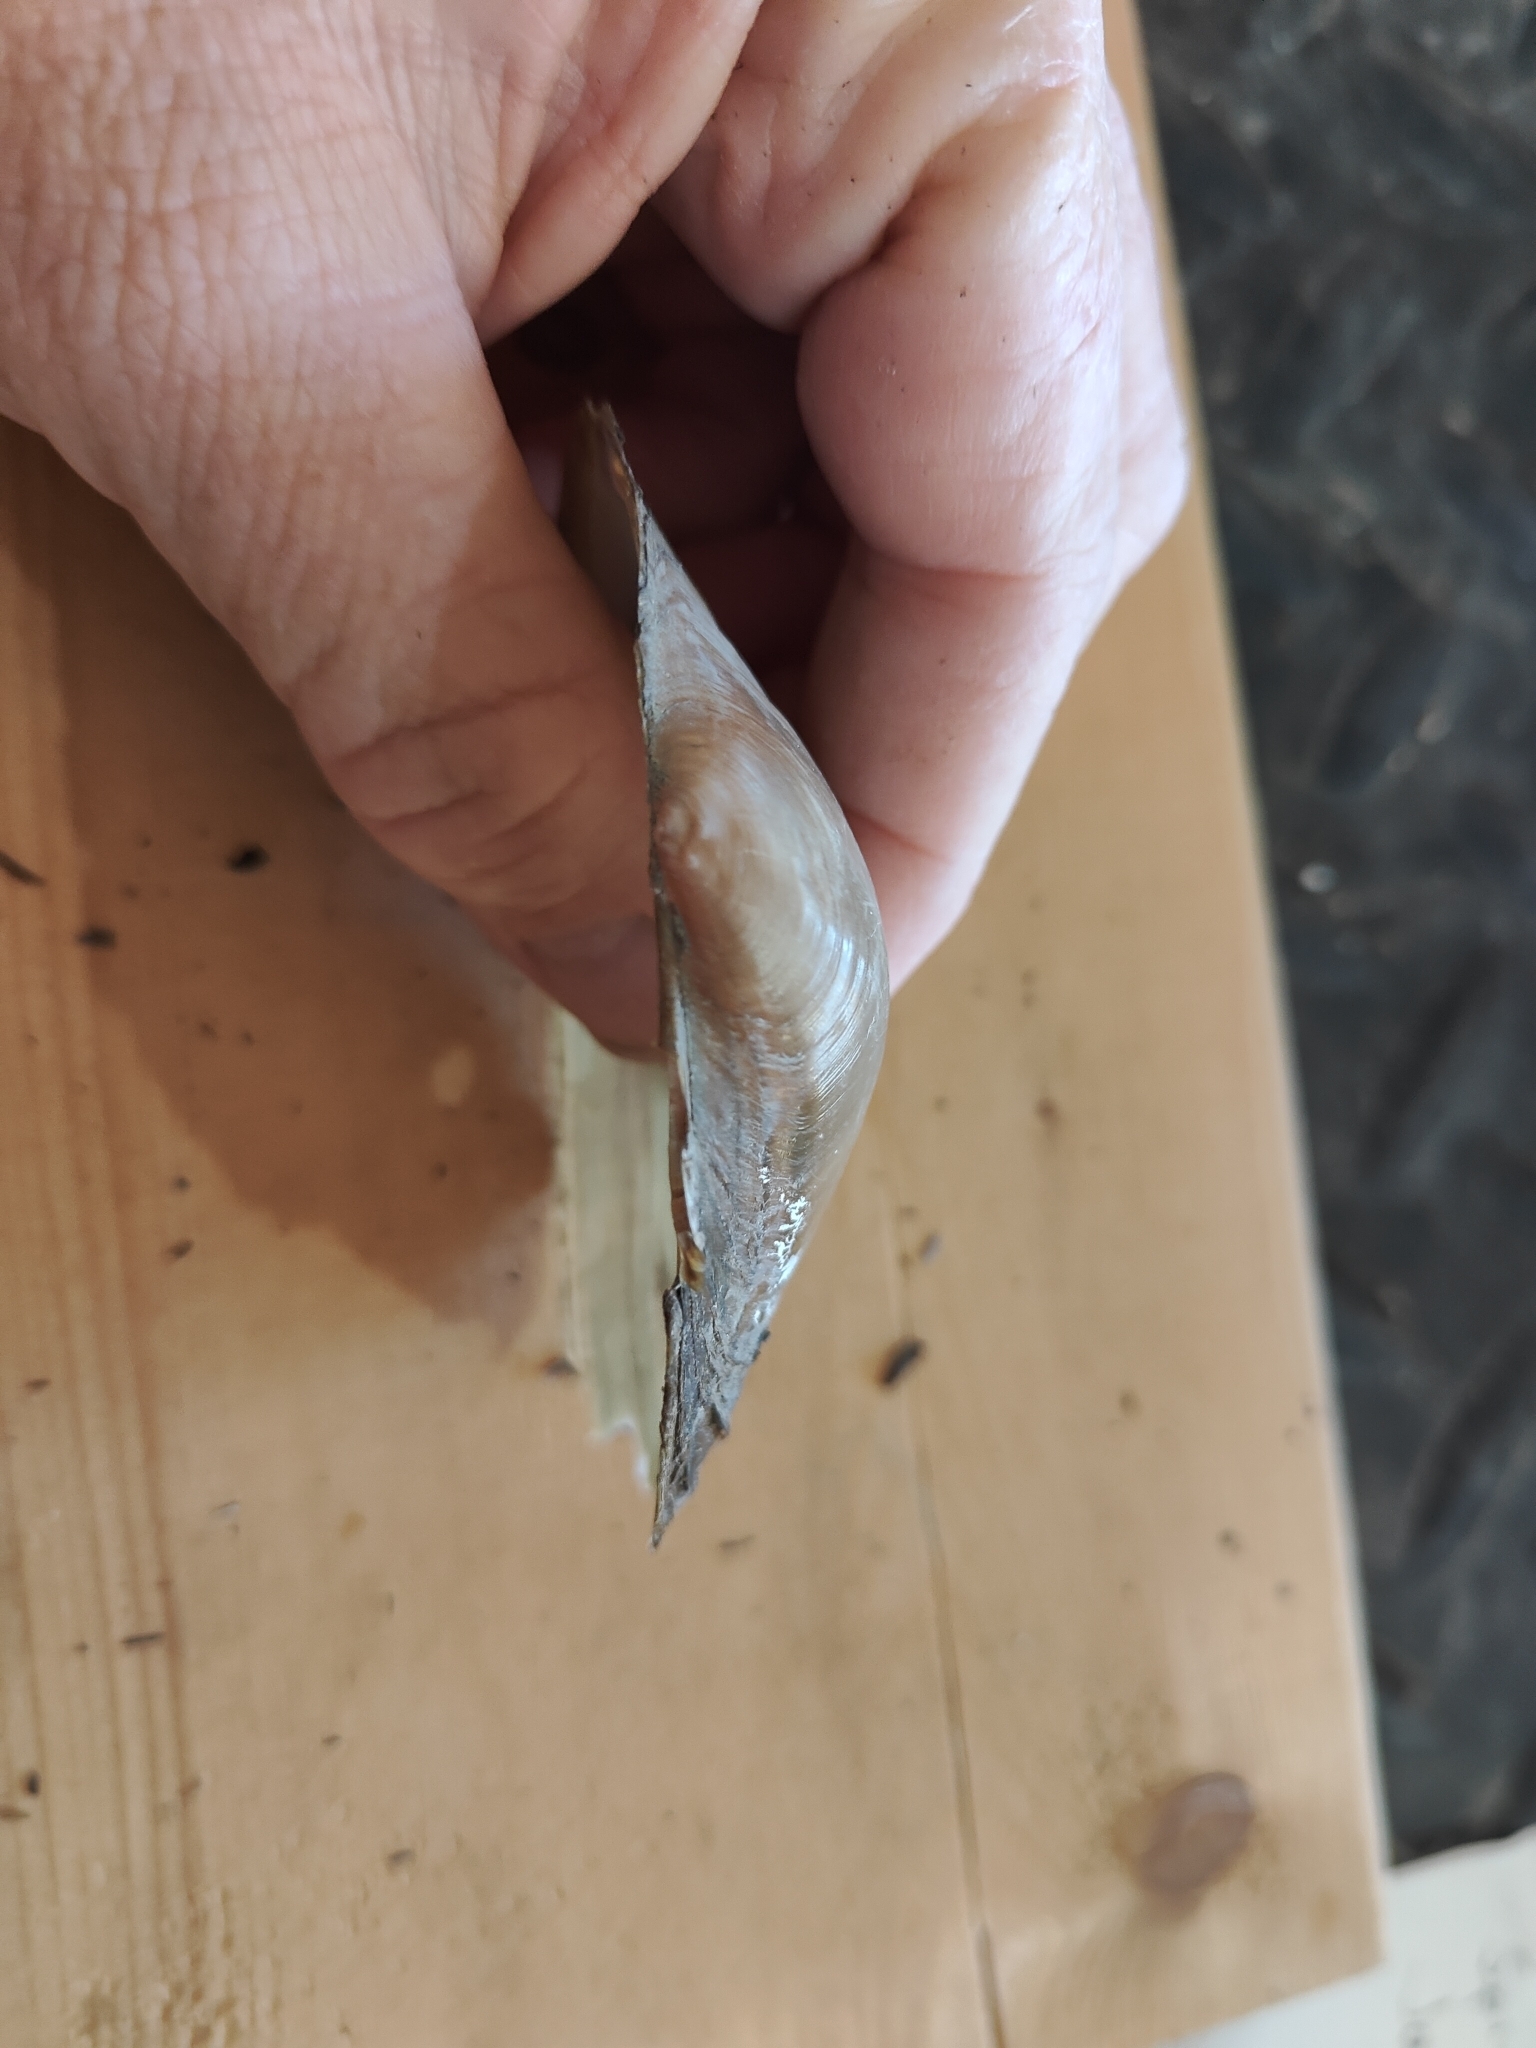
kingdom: Animalia
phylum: Mollusca
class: Bivalvia
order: Unionida
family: Unionidae
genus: Pyganodon
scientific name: Pyganodon grandis
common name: Giant floater
